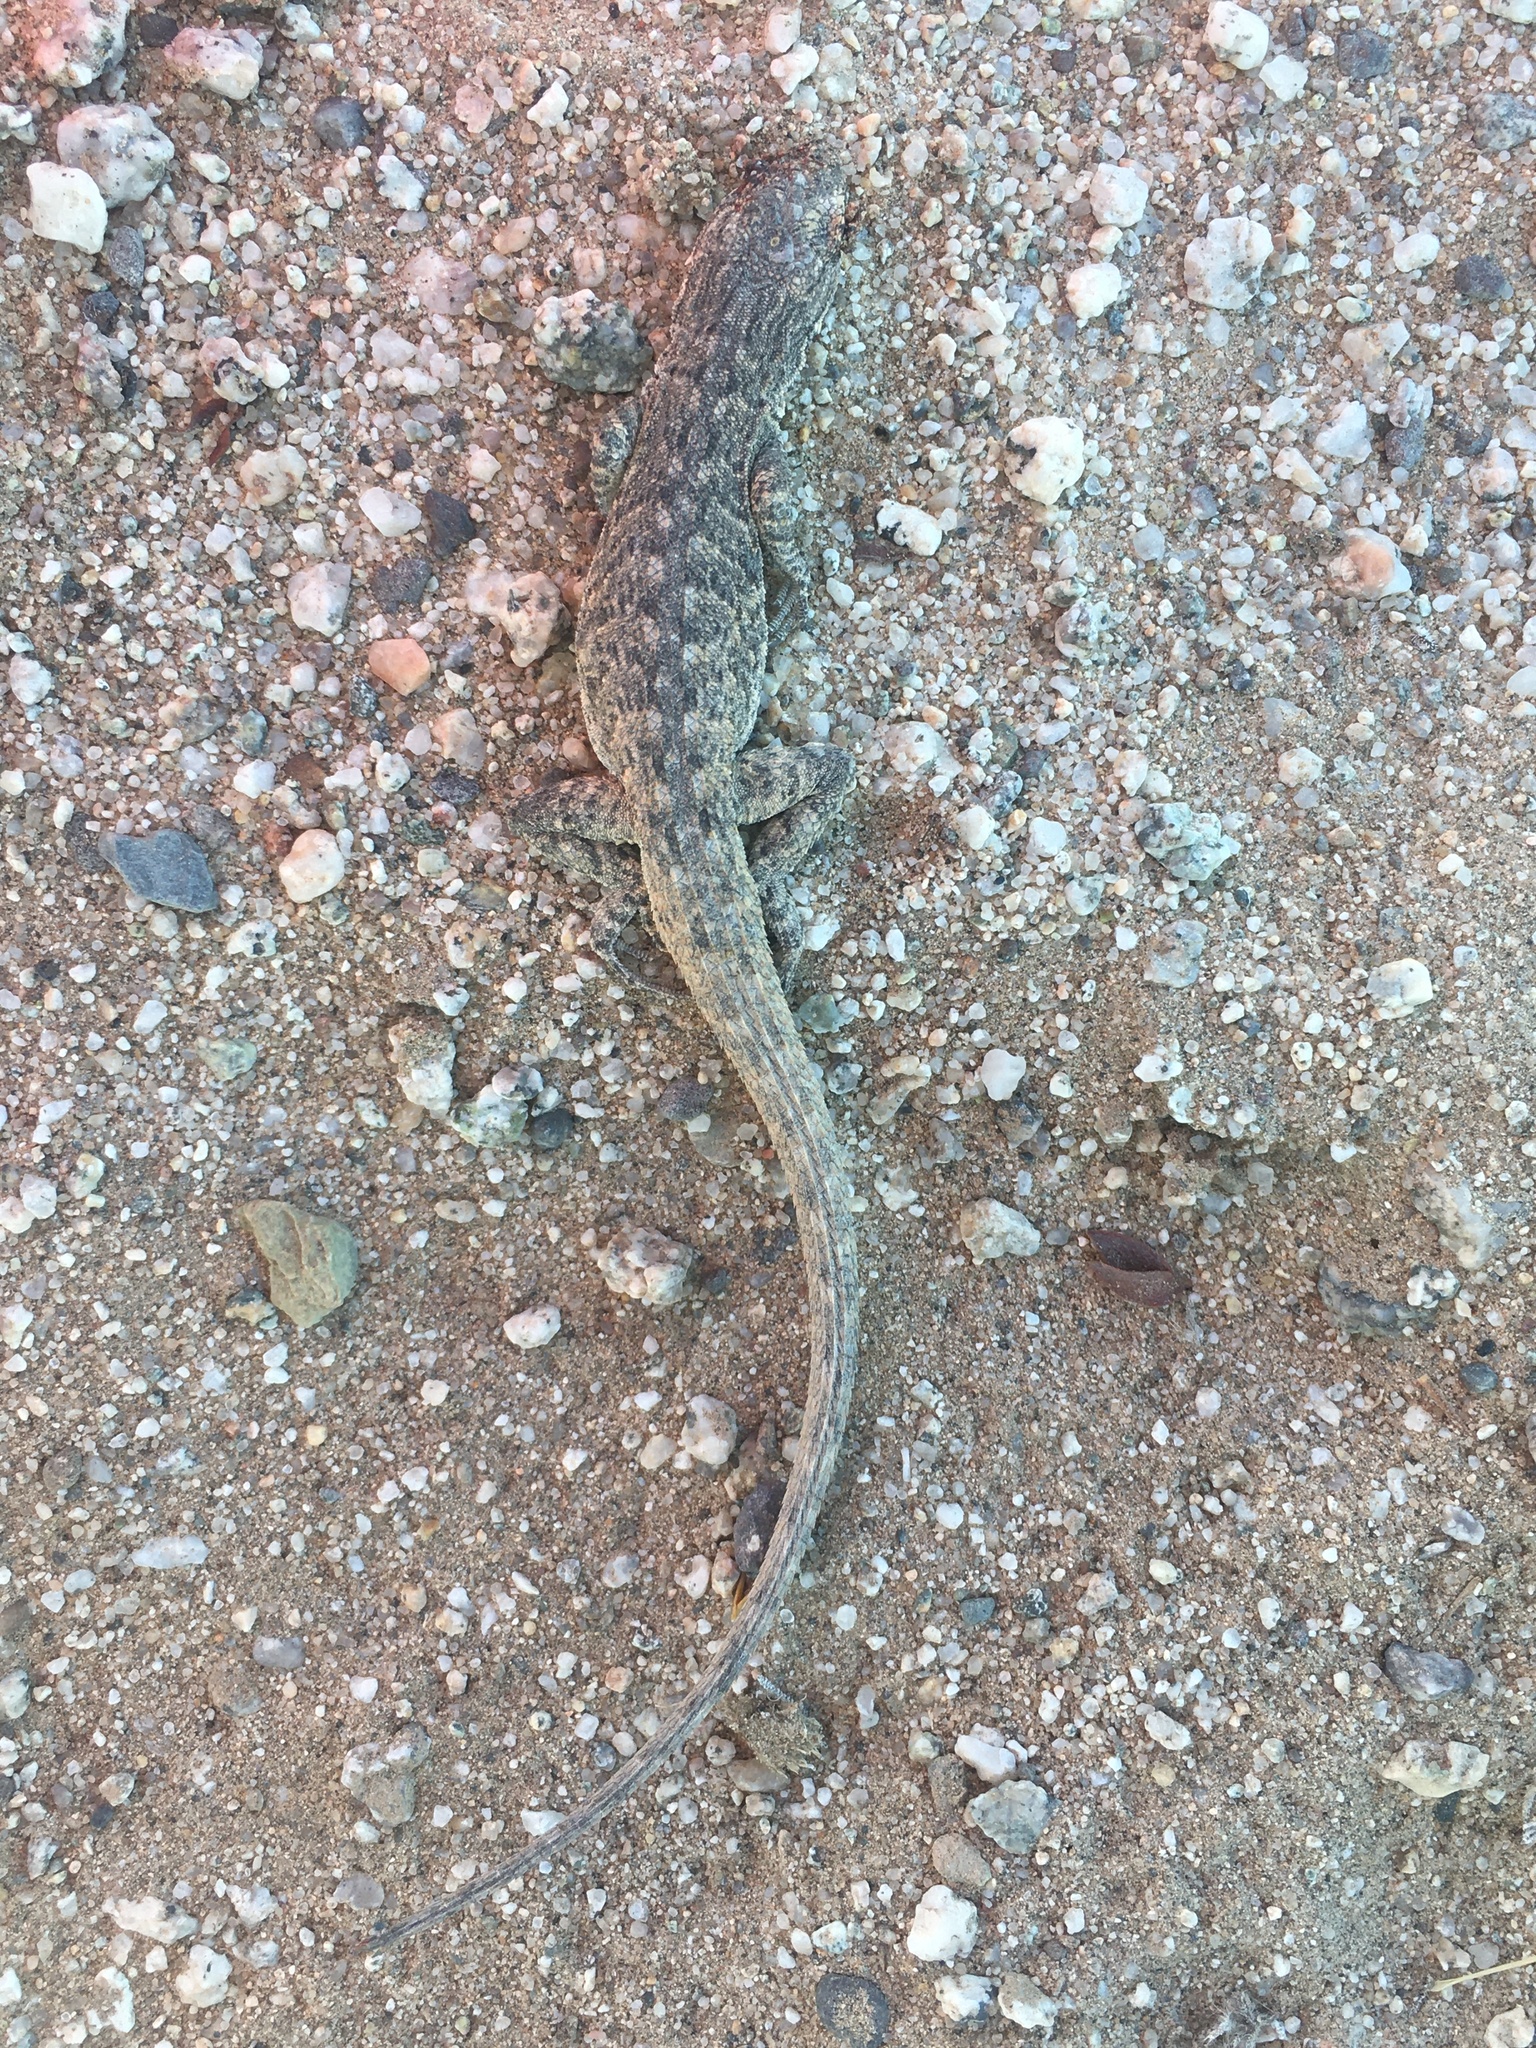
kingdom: Animalia
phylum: Chordata
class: Squamata
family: Phrynosomatidae
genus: Urosaurus
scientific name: Urosaurus graciosus
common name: Long-tailed brush lizard
